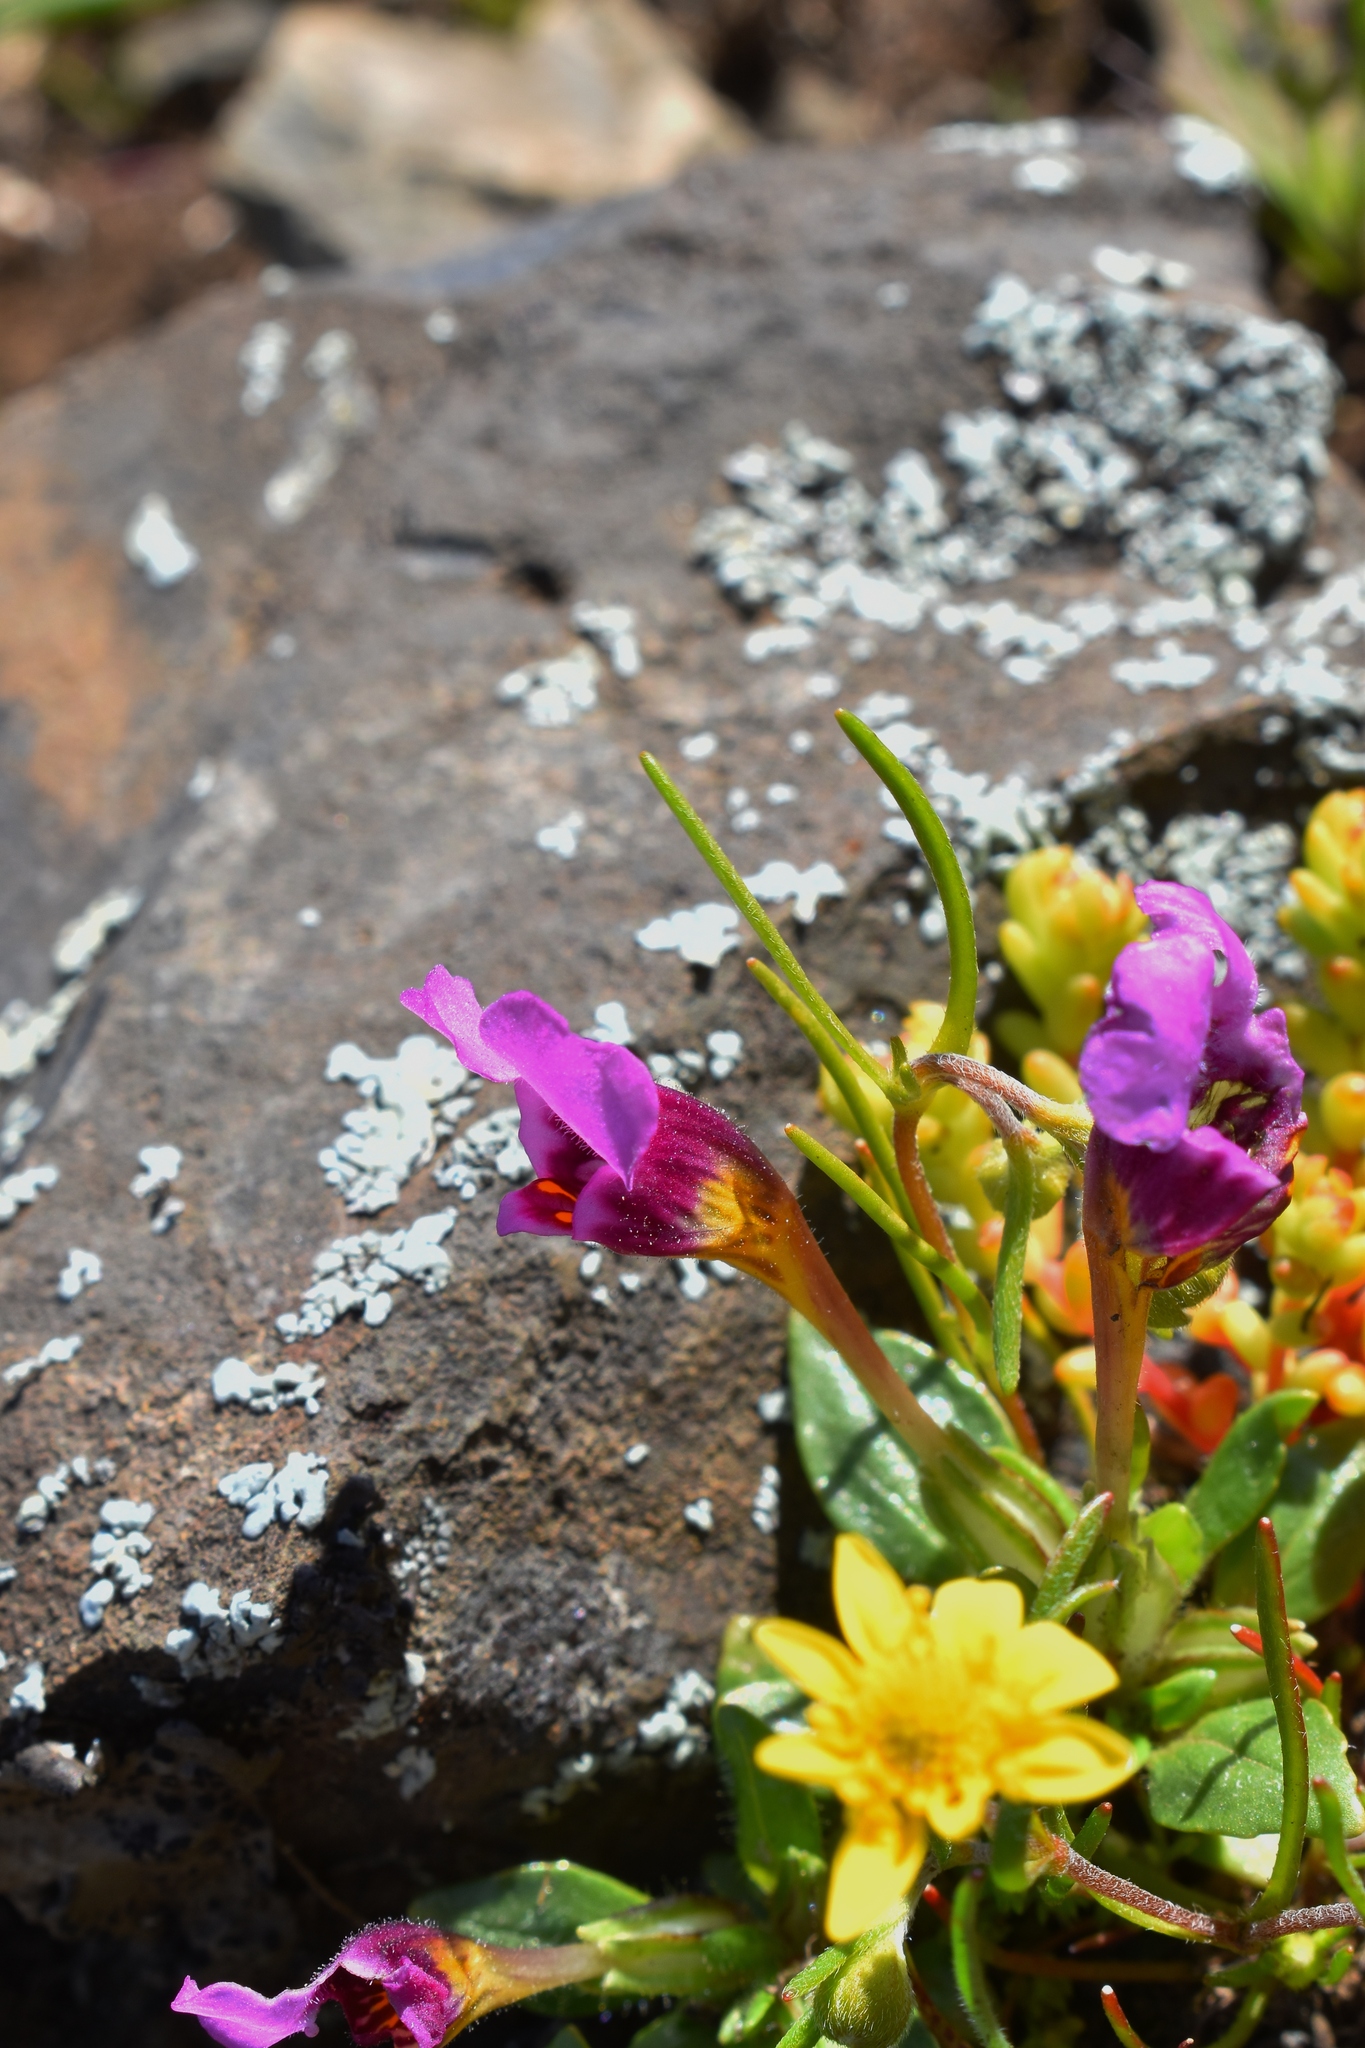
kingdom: Plantae
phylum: Tracheophyta
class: Magnoliopsida
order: Lamiales
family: Phrymaceae
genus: Diplacus
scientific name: Diplacus douglasii
